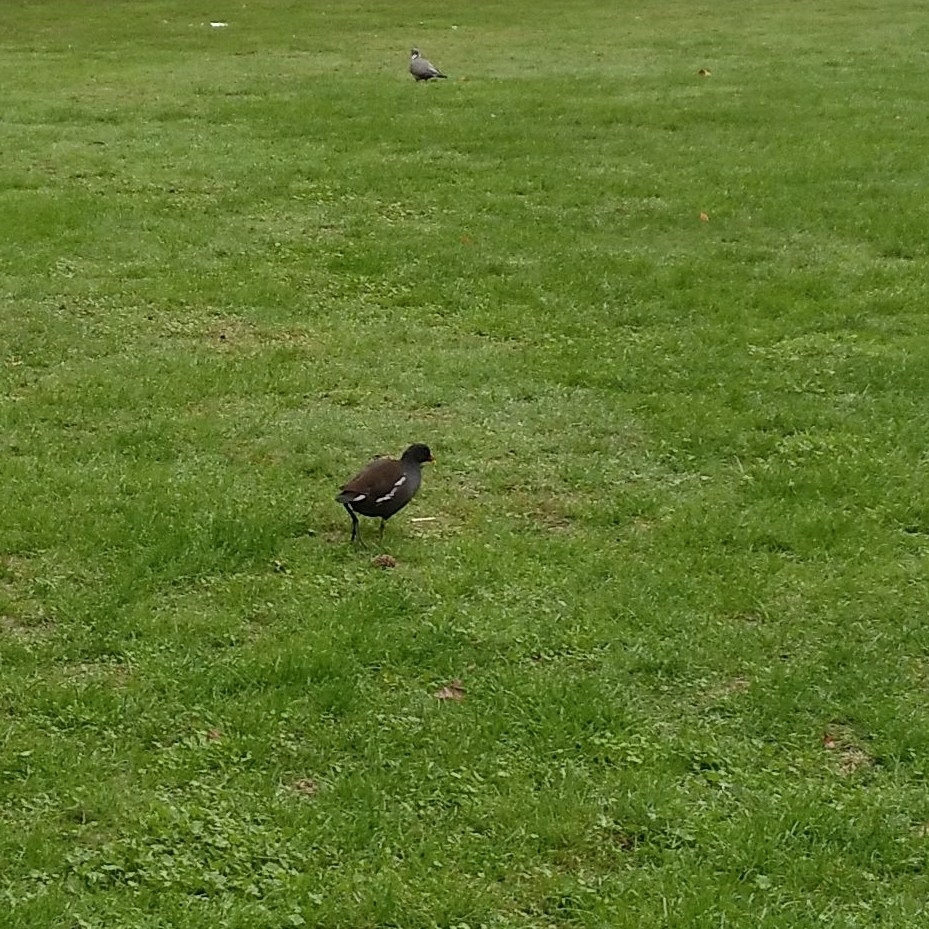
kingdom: Animalia
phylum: Chordata
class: Aves
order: Gruiformes
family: Rallidae
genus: Gallinula
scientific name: Gallinula chloropus
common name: Common moorhen
